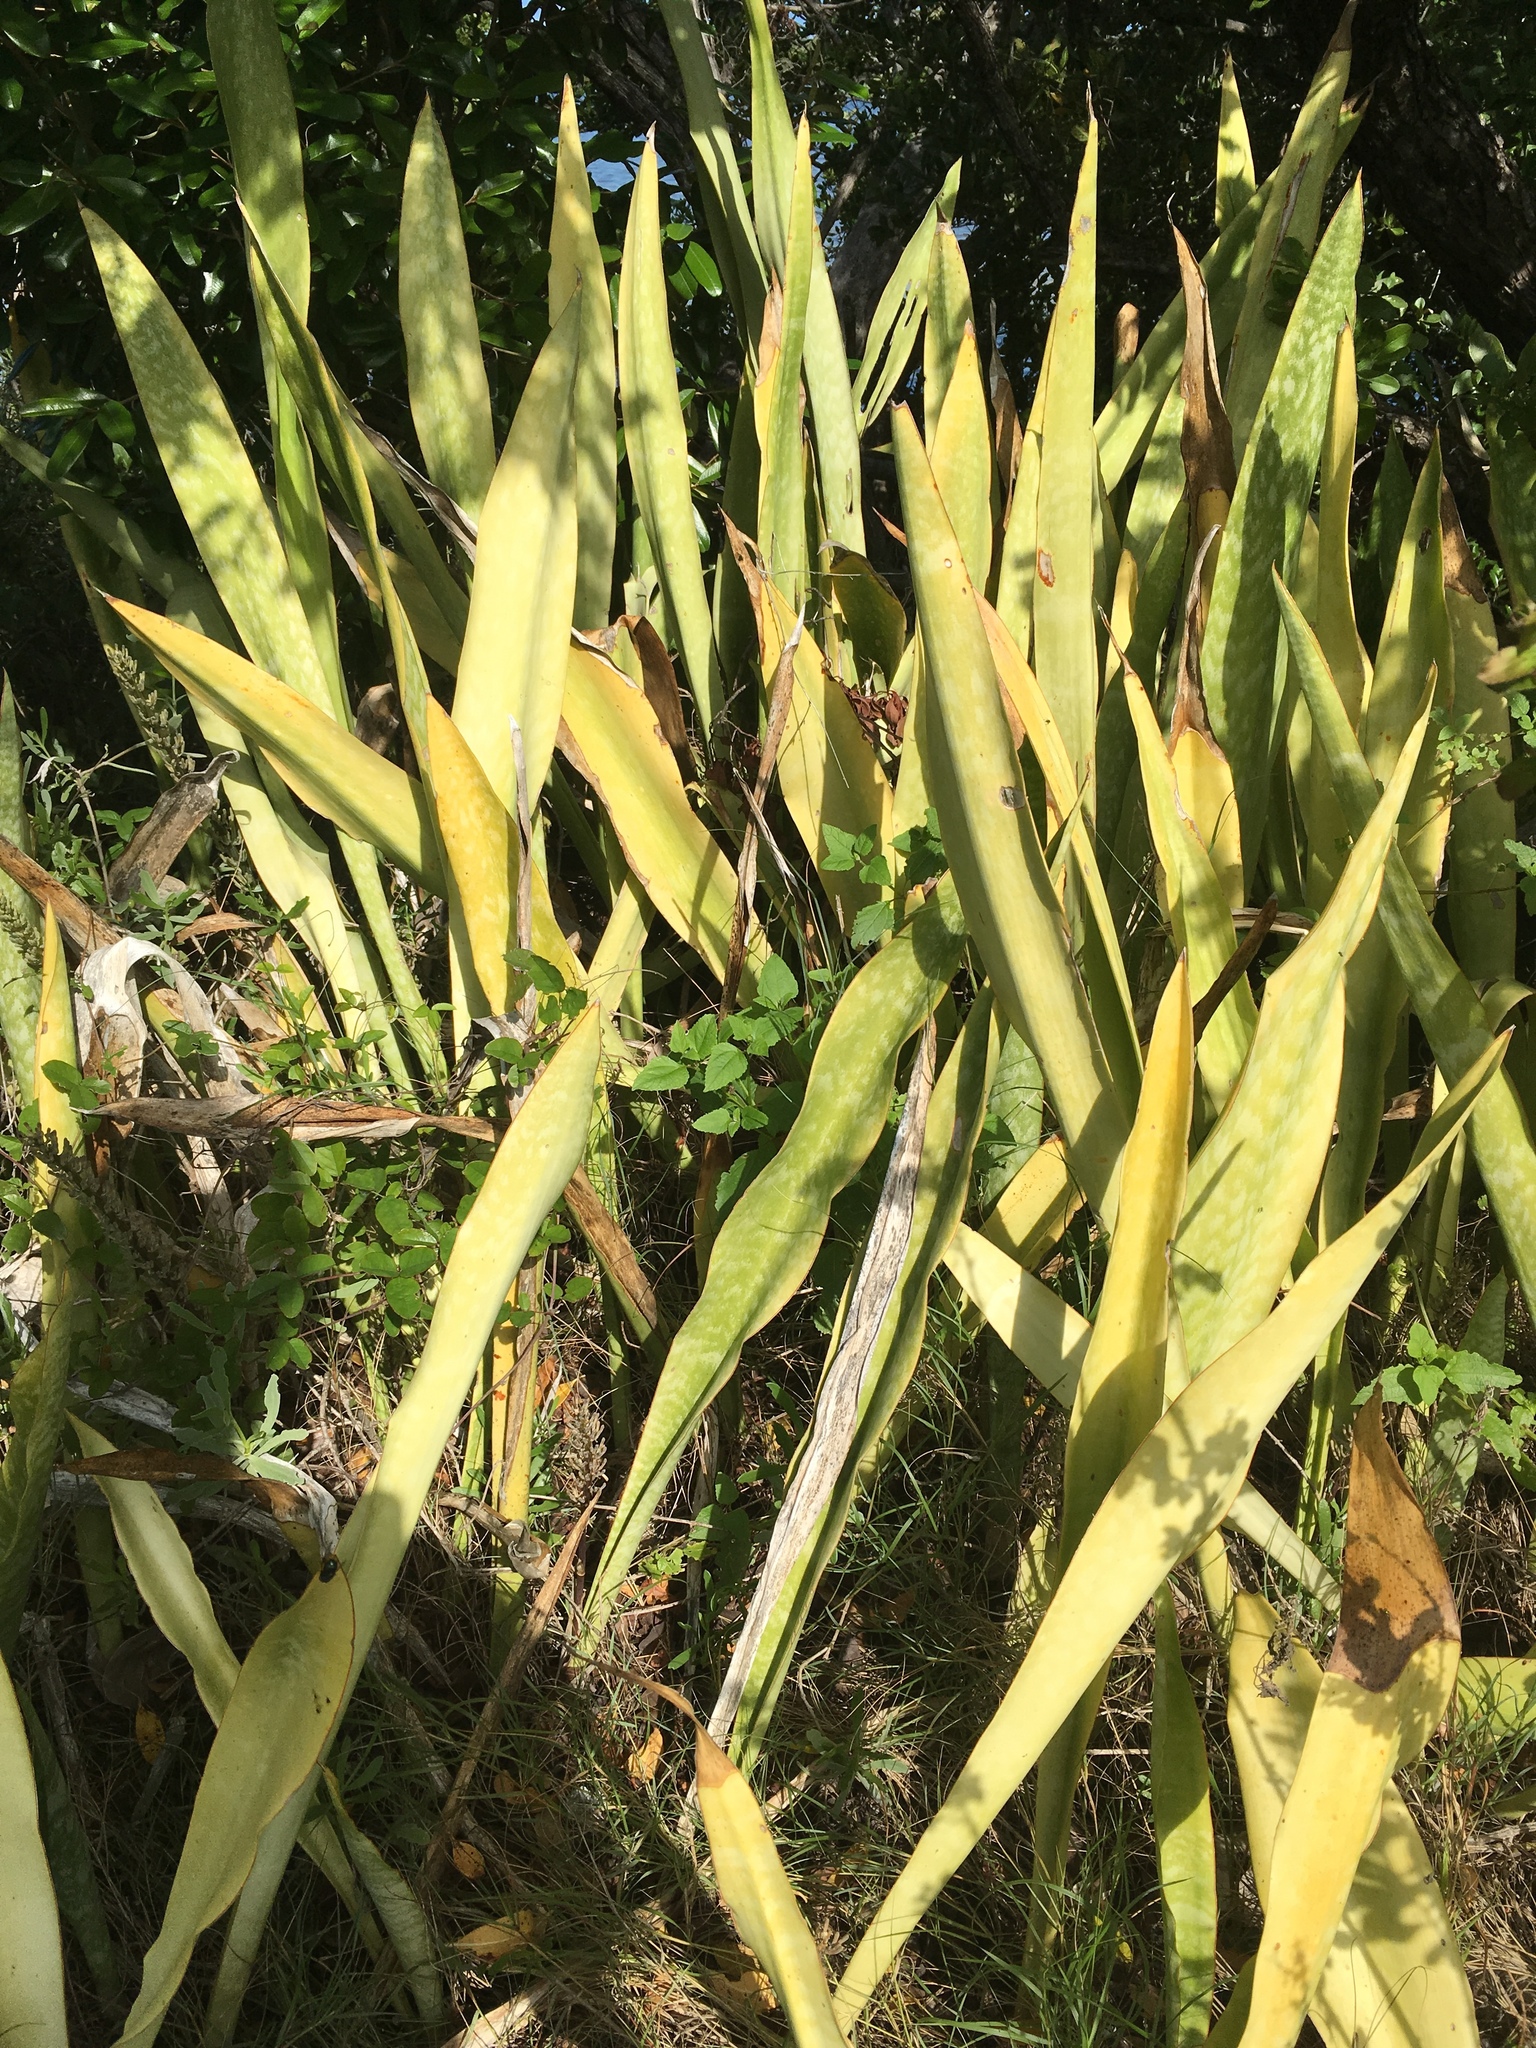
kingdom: Plantae
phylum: Tracheophyta
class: Liliopsida
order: Asparagales
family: Asparagaceae
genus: Dracaena
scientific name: Dracaena hyacinthoides
